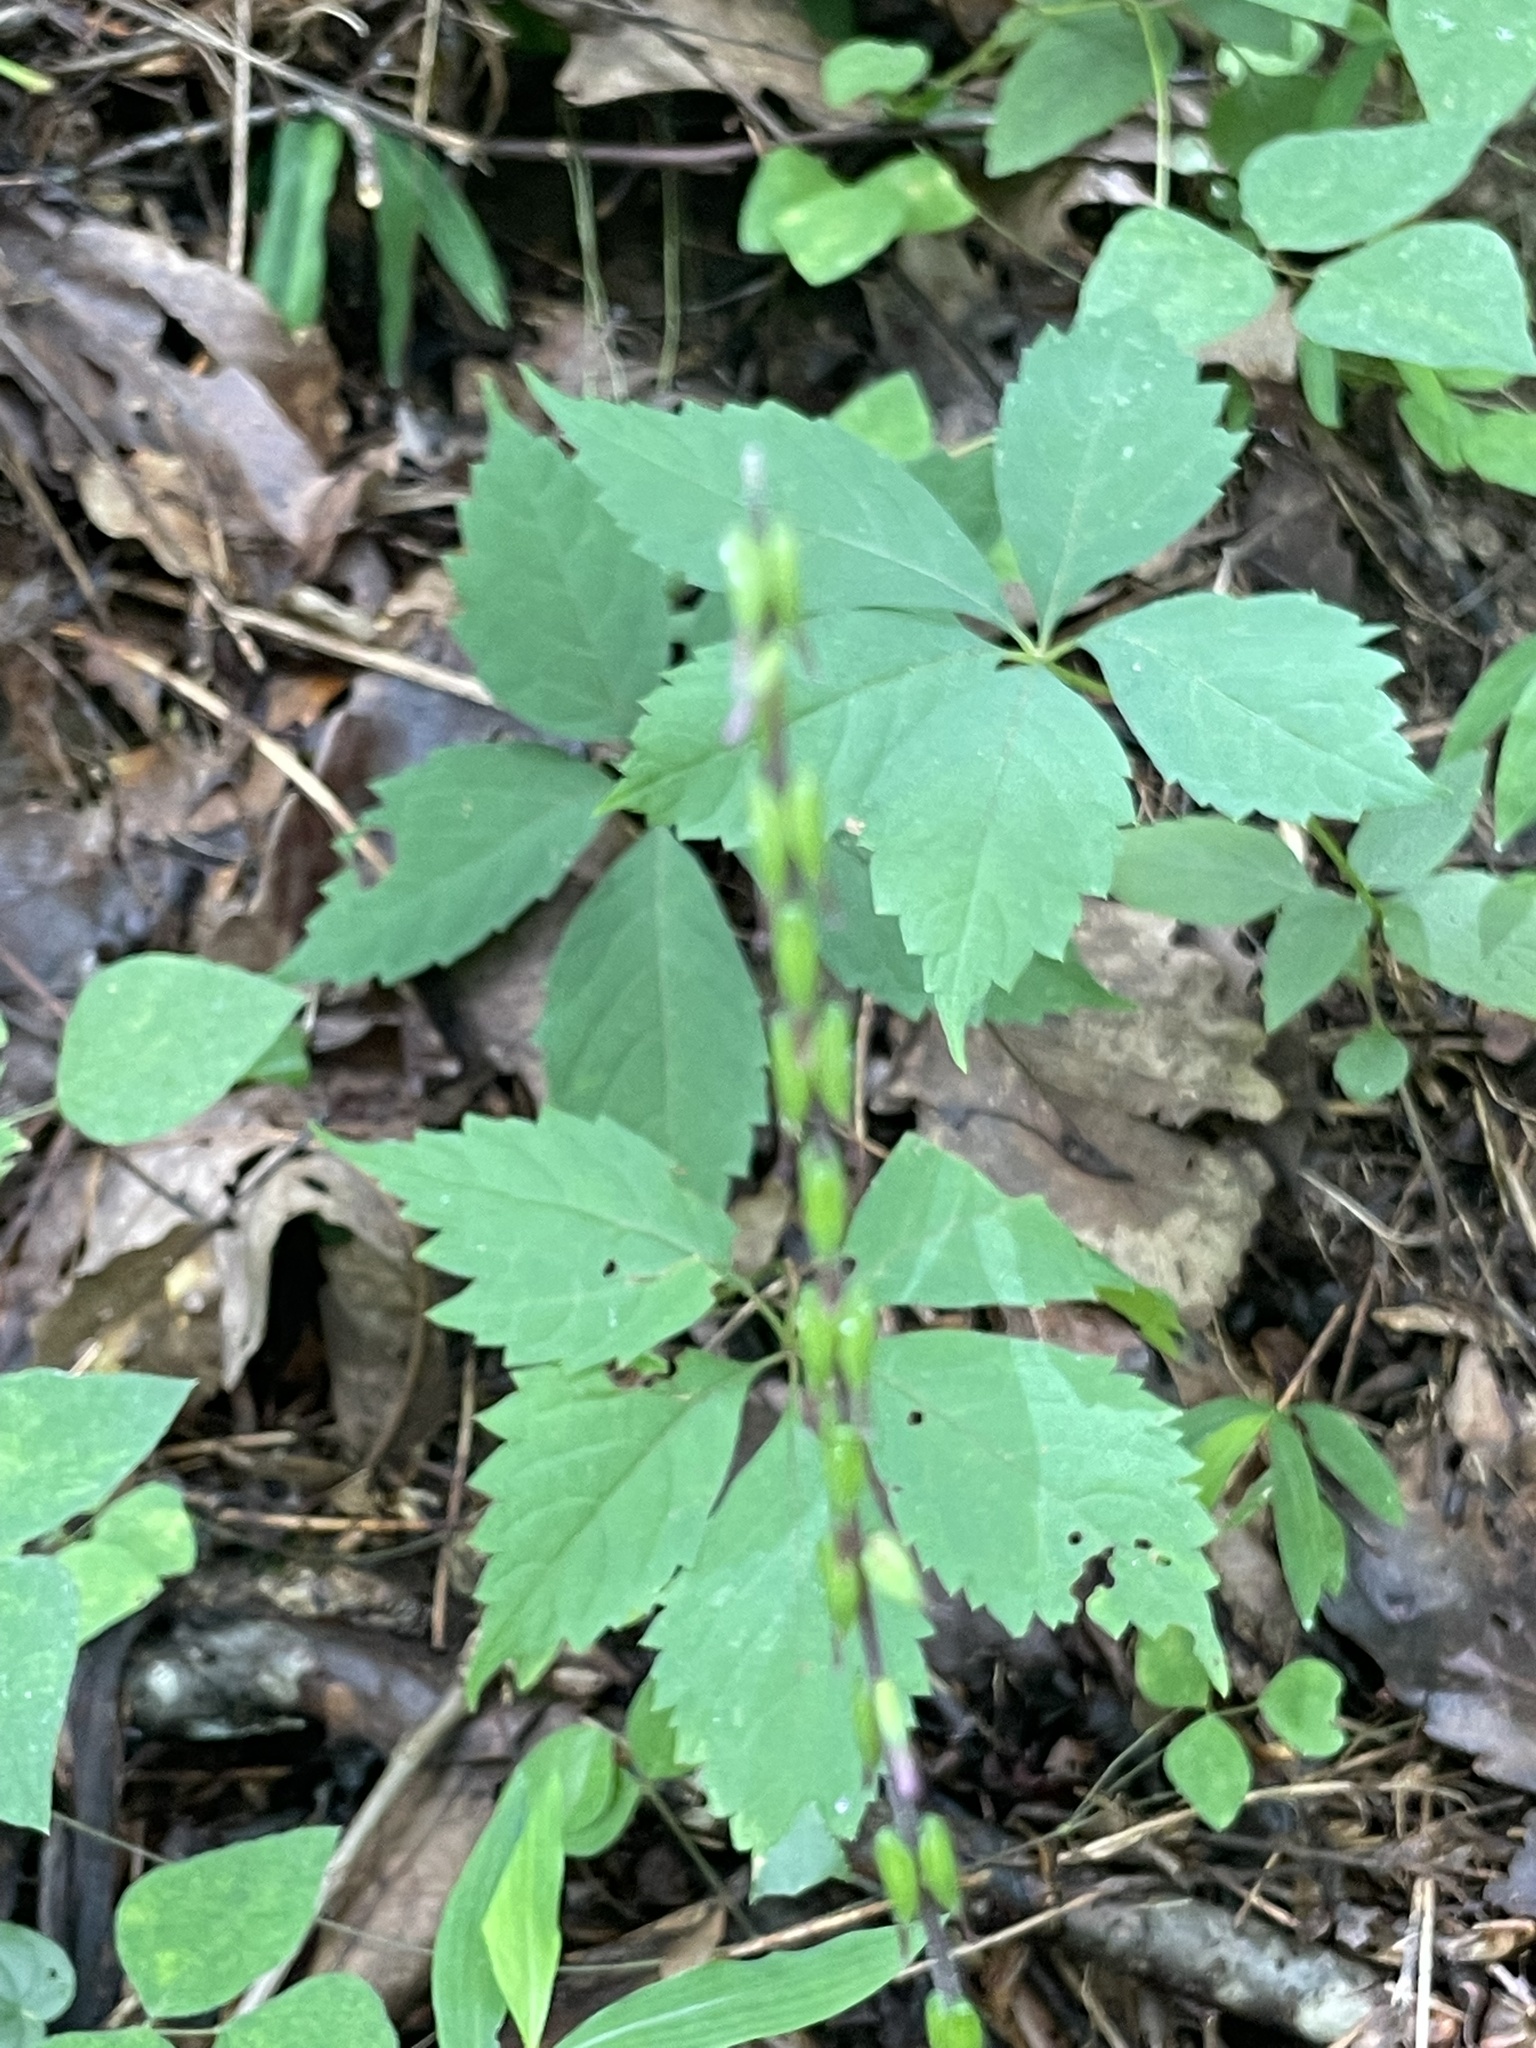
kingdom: Plantae
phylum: Tracheophyta
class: Magnoliopsida
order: Lamiales
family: Phrymaceae
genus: Phryma
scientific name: Phryma leptostachya
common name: American lopseed
